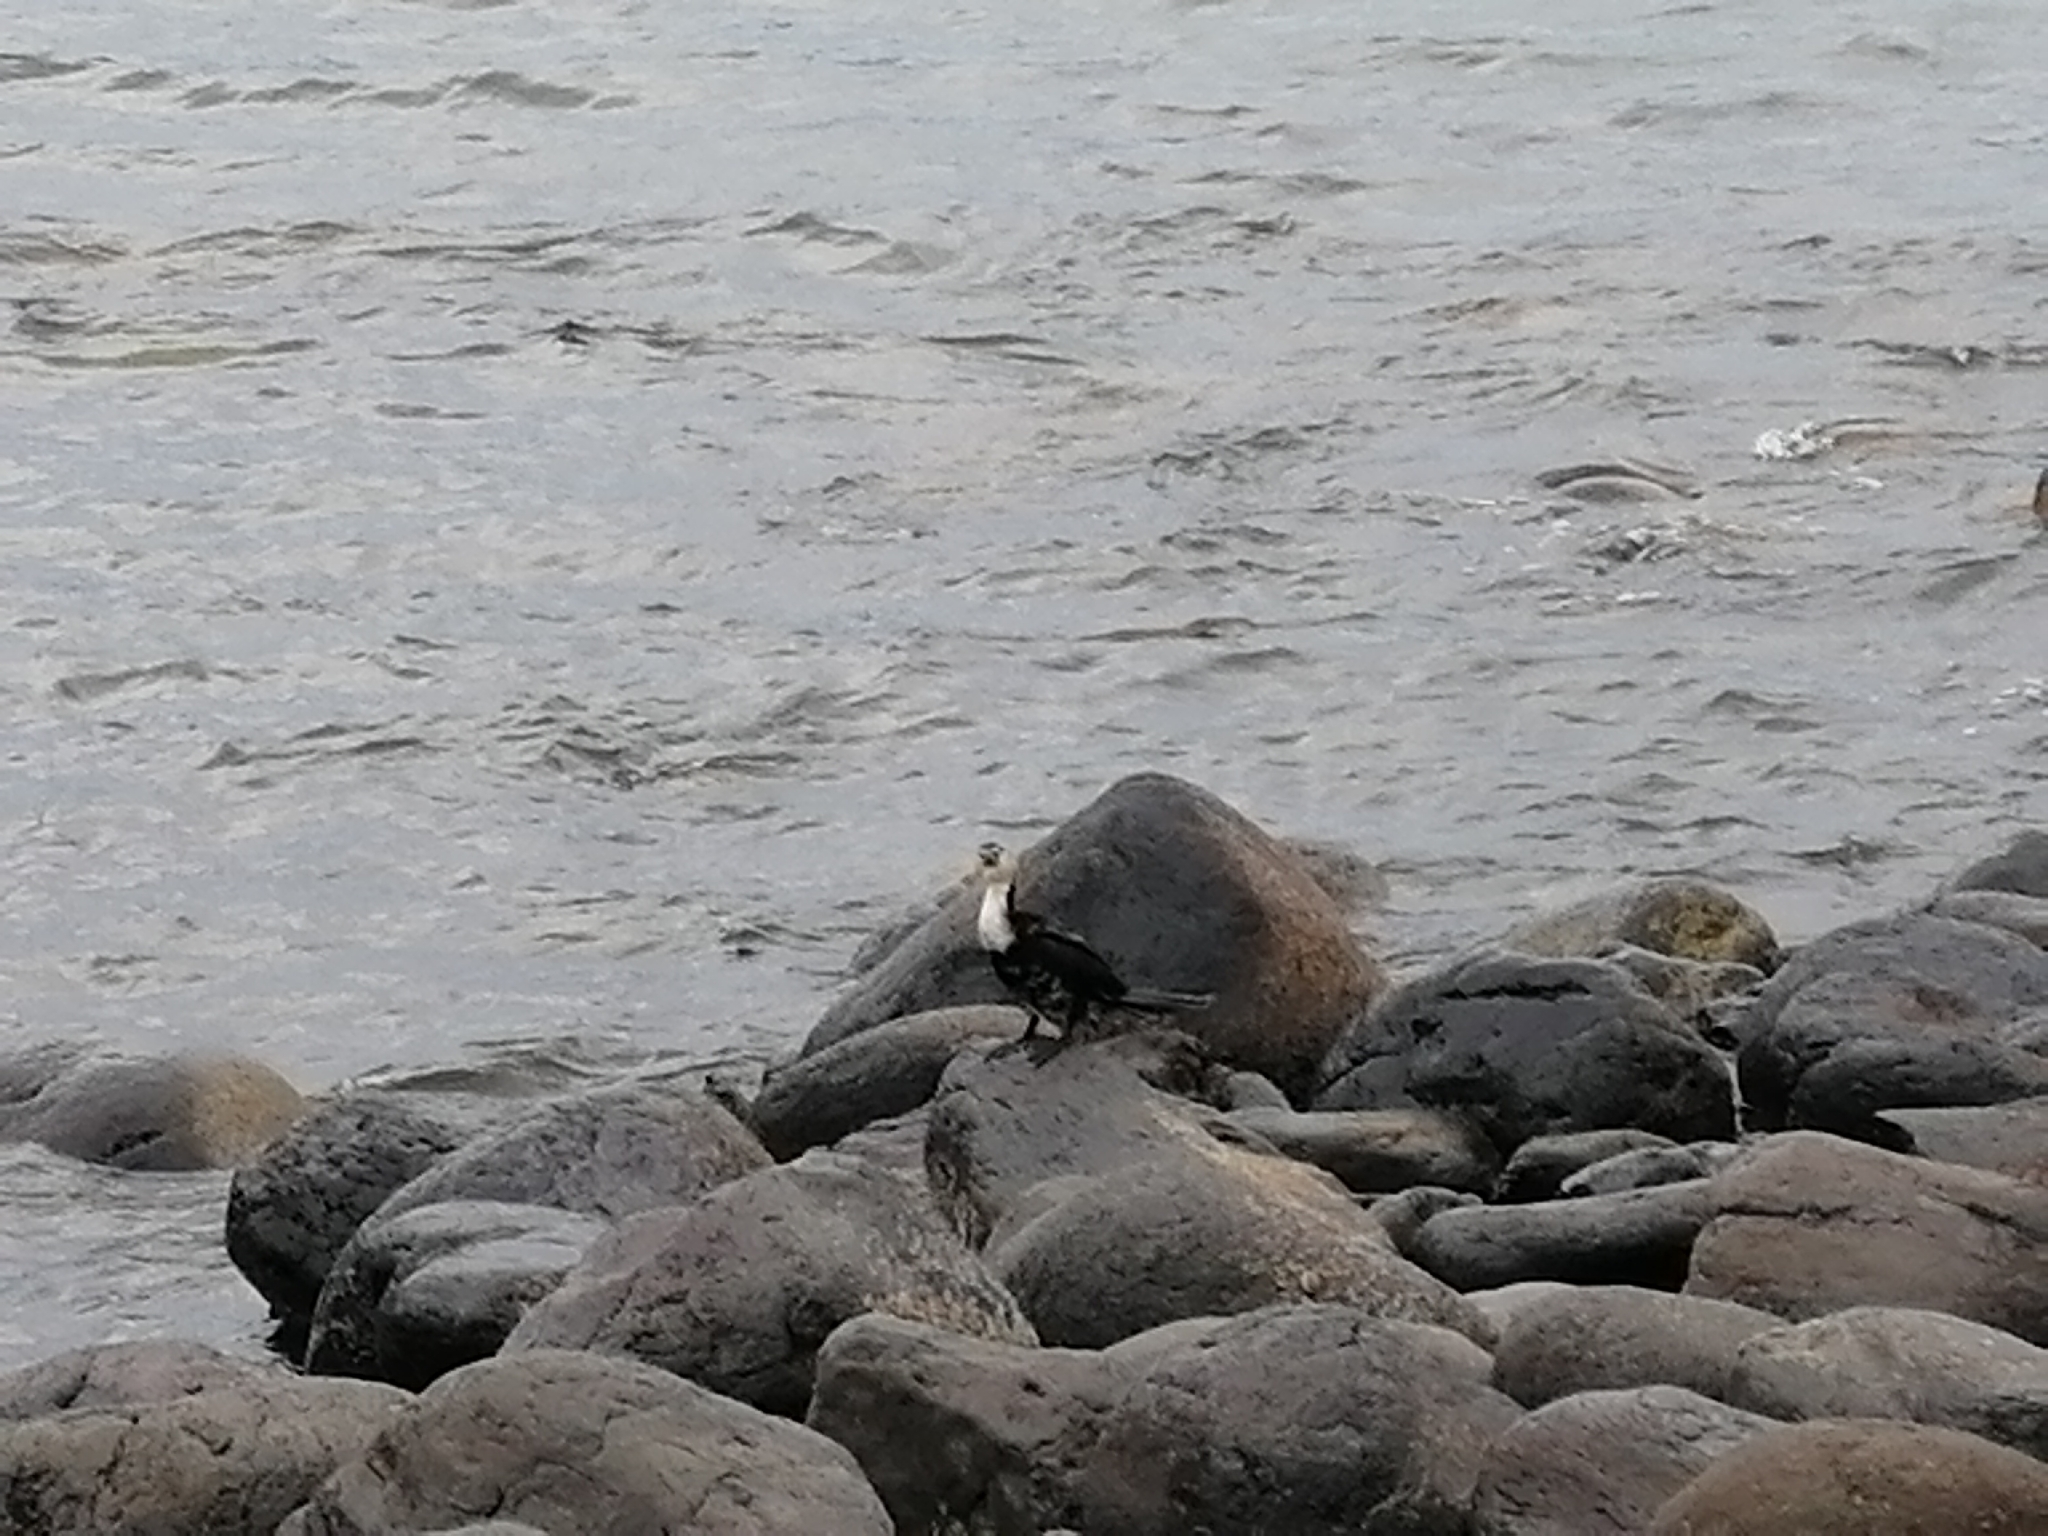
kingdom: Animalia
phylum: Chordata
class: Aves
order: Suliformes
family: Phalacrocoracidae
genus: Microcarbo
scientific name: Microcarbo melanoleucos
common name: Little pied cormorant
